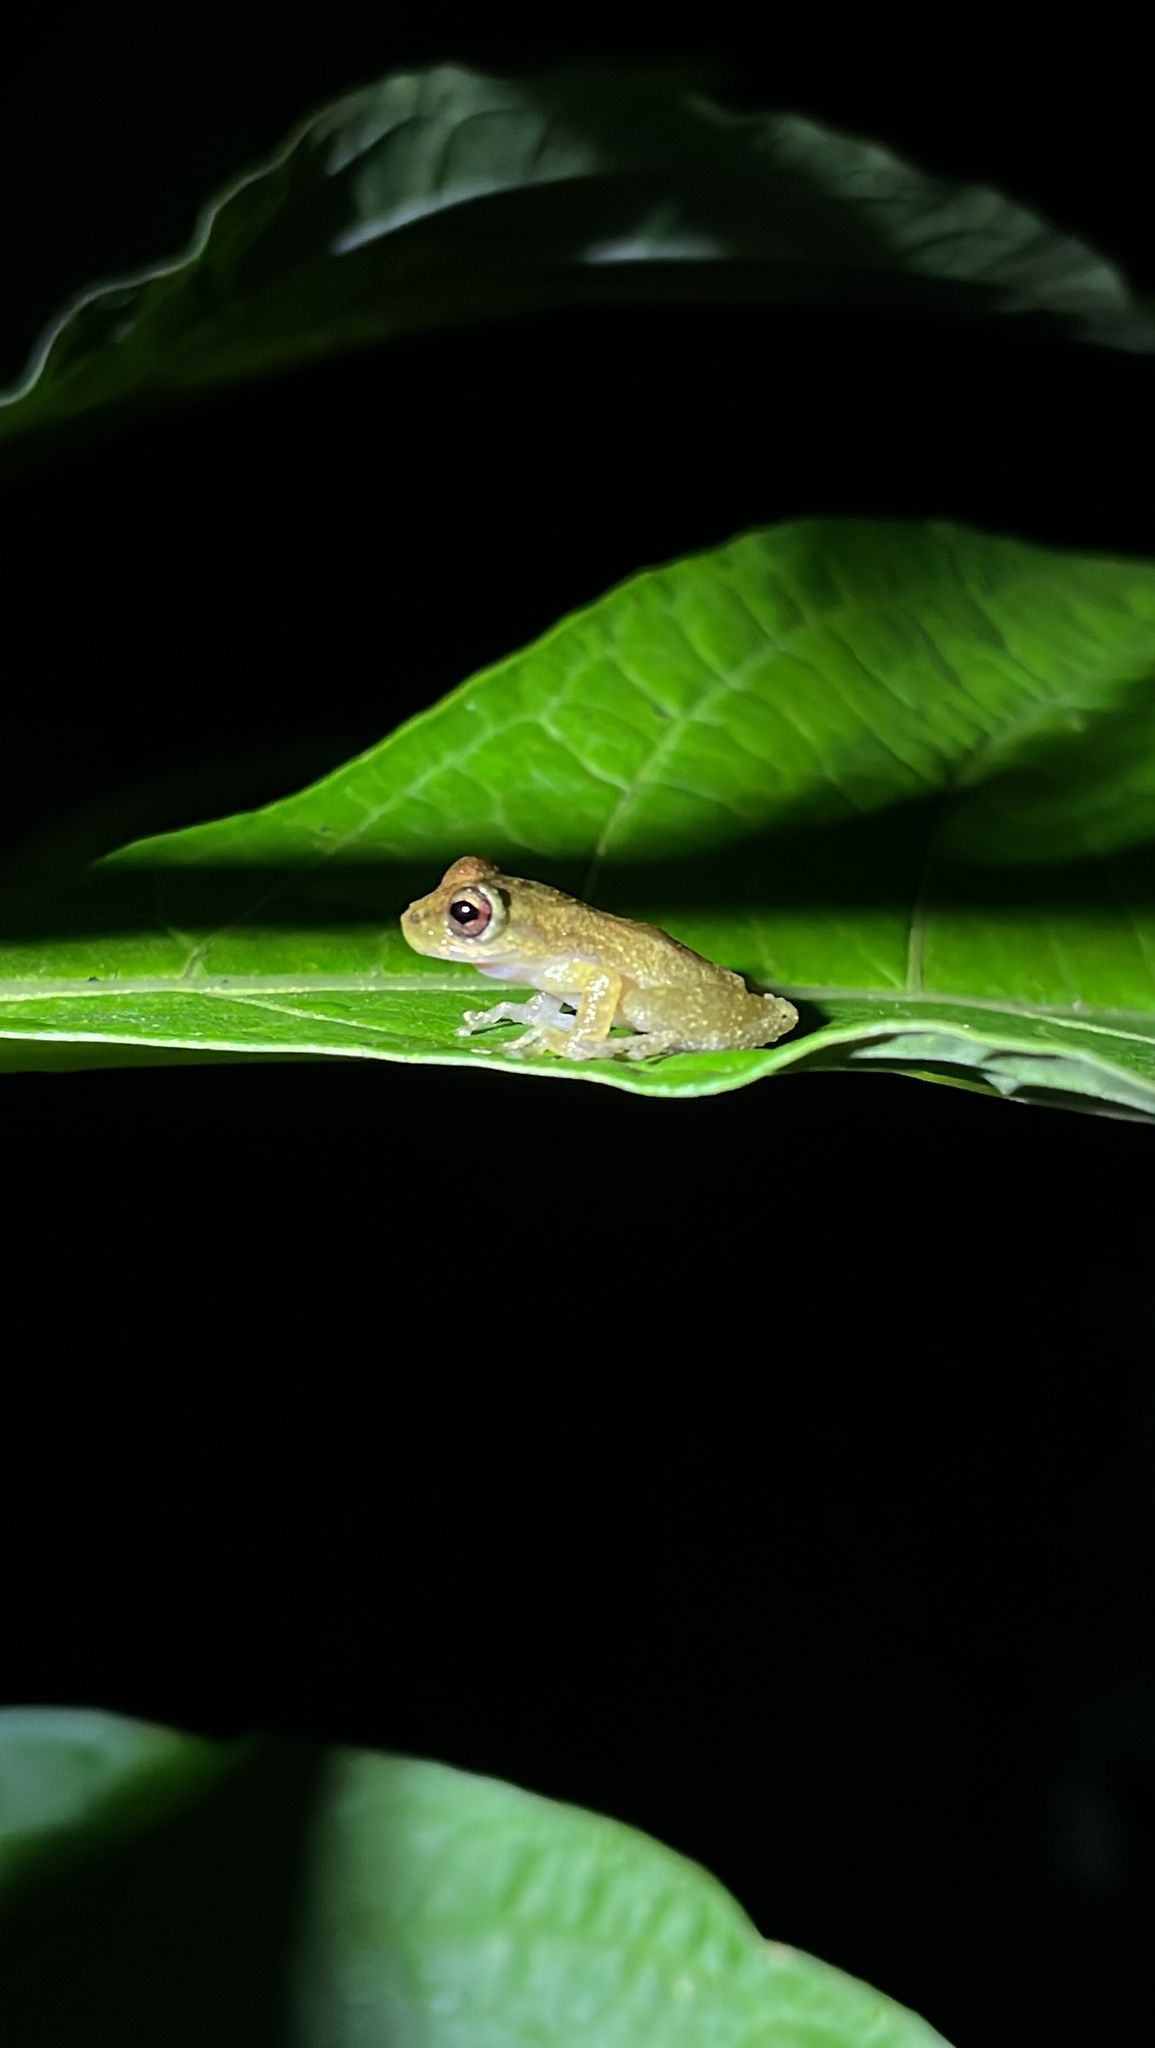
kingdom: Animalia
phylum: Chordata
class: Amphibia
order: Anura
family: Hemiphractidae
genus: Flectonotus
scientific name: Flectonotus fitzgeraldi
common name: Marsupial frog
